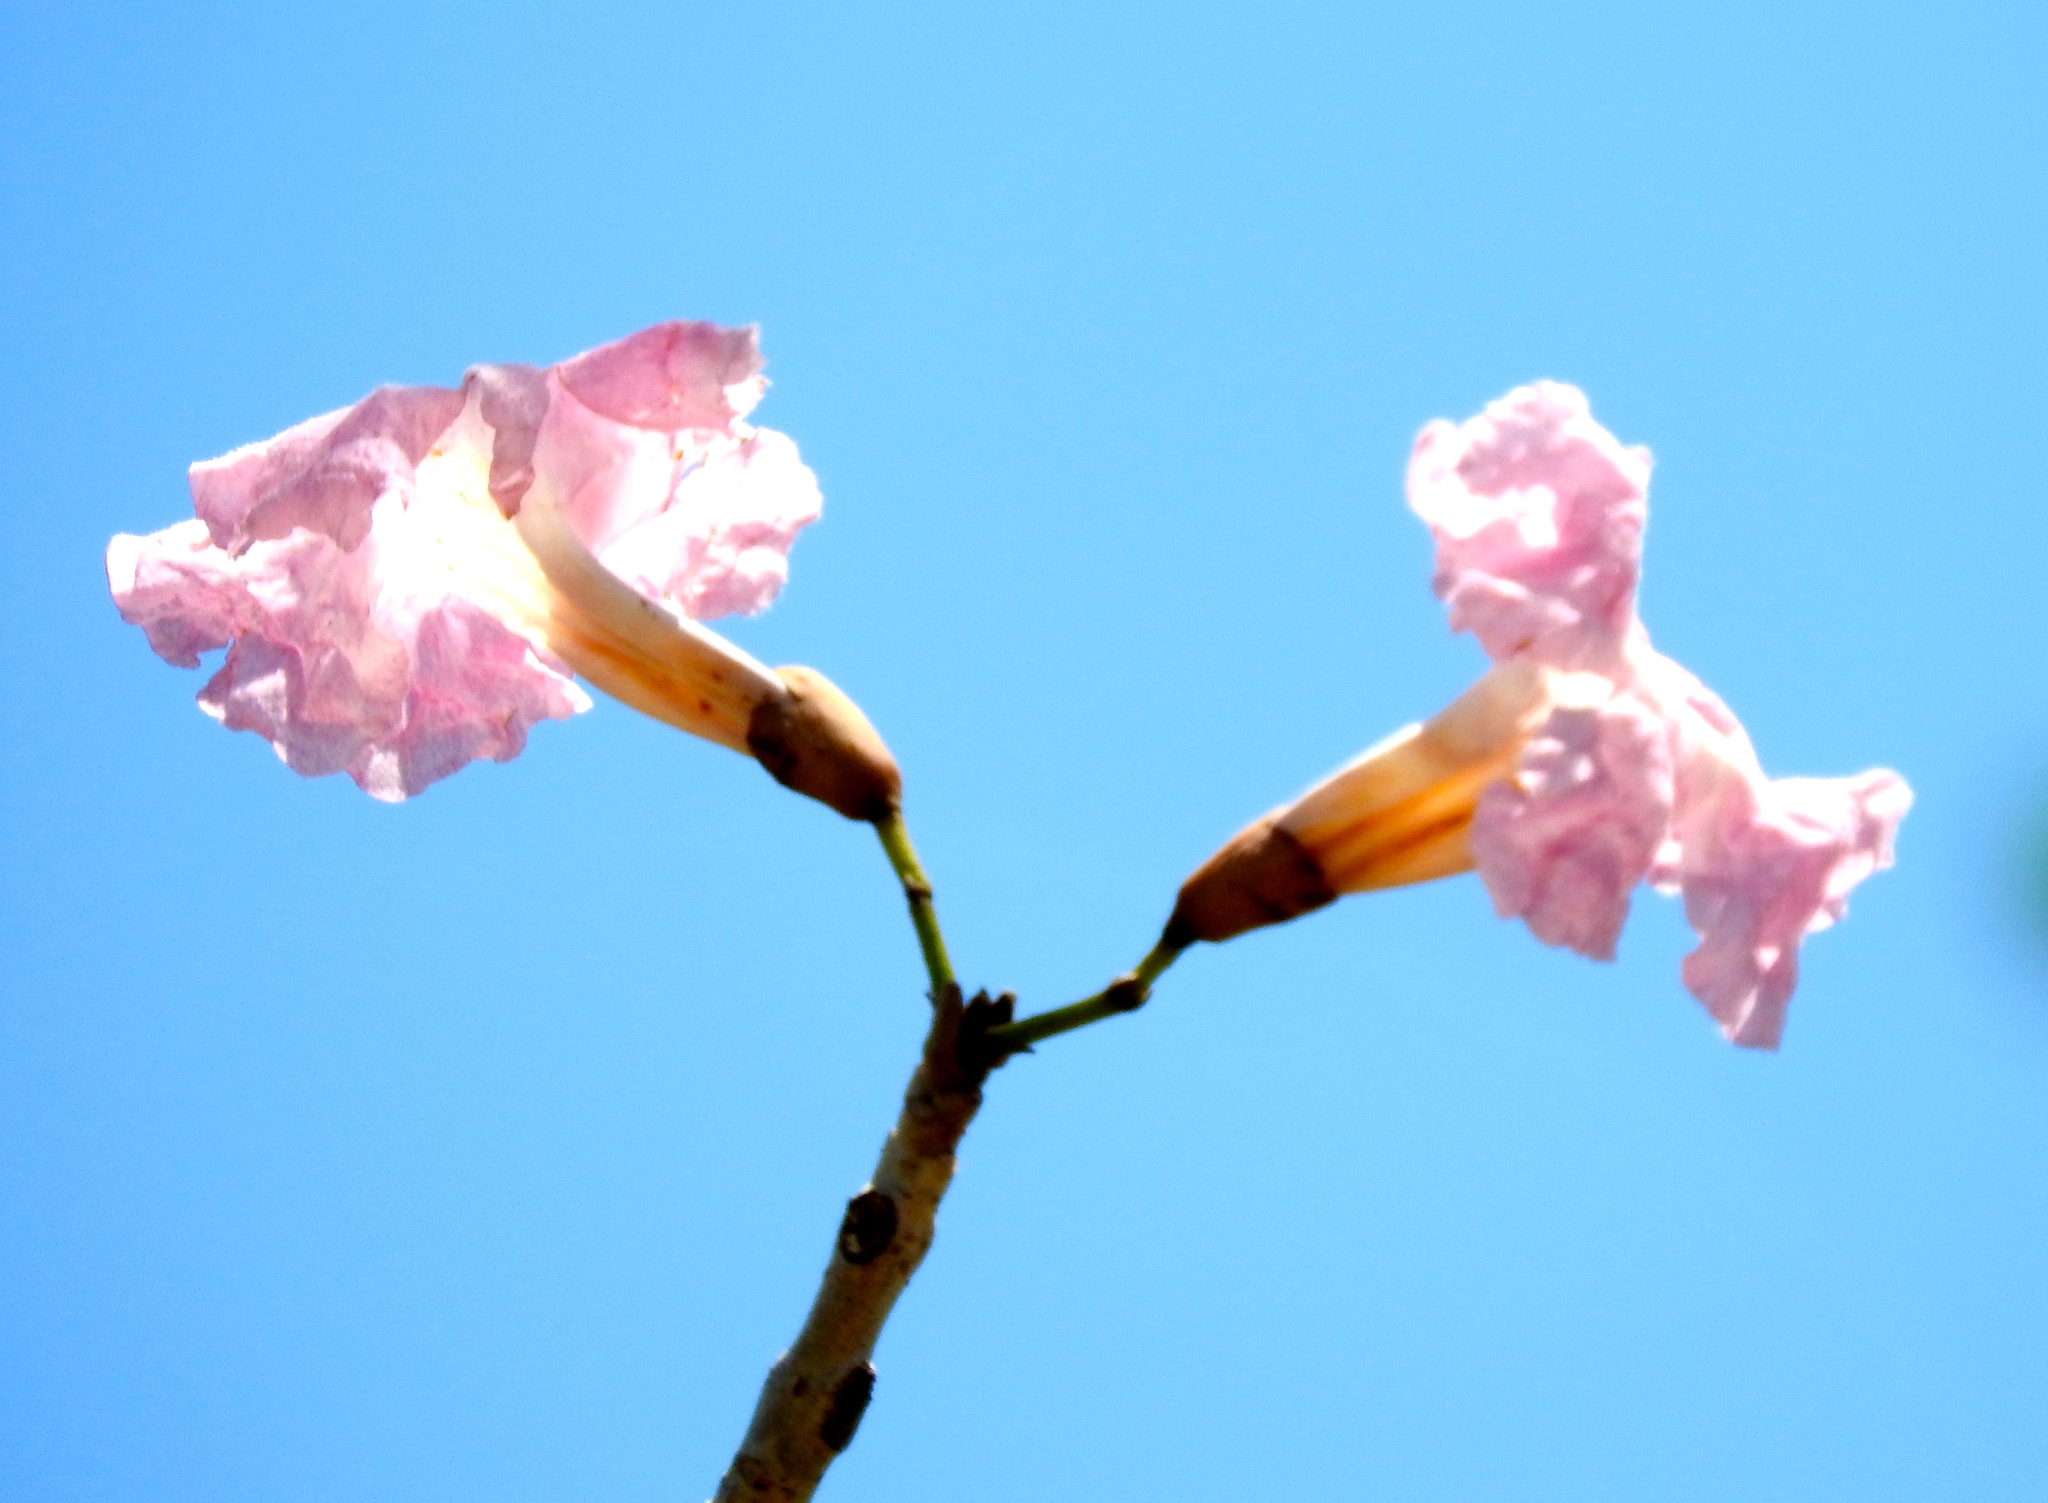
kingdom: Plantae
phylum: Tracheophyta
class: Magnoliopsida
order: Lamiales
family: Bignoniaceae
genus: Tabebuia
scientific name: Tabebuia rosea
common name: Pink poui
